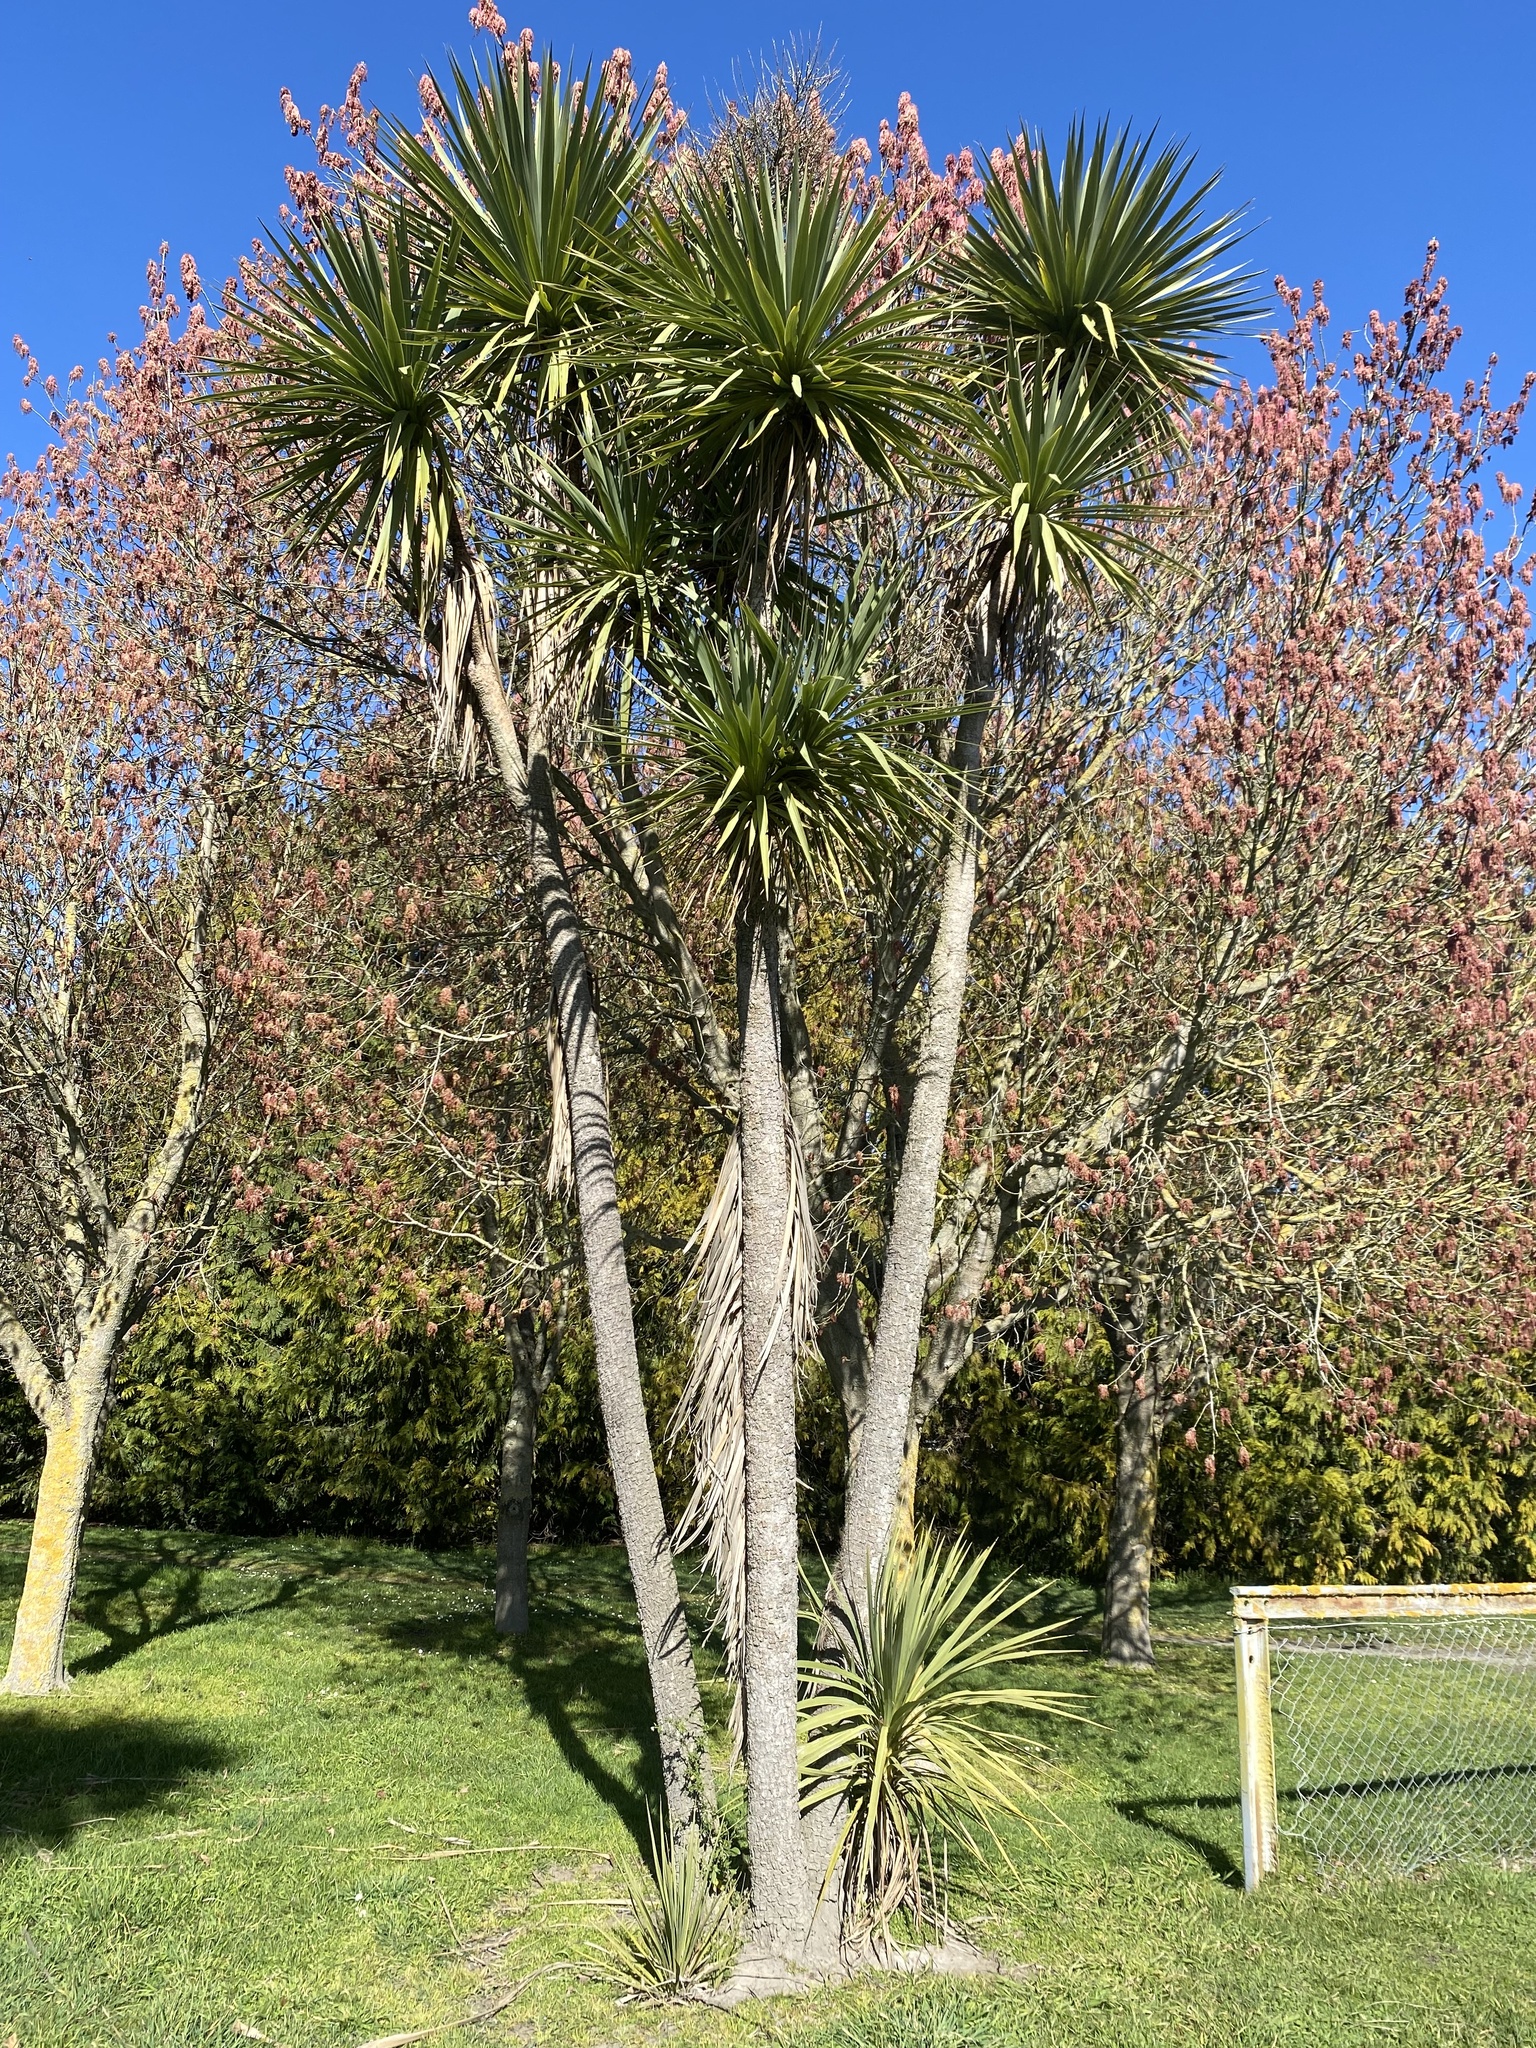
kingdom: Plantae
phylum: Tracheophyta
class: Liliopsida
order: Asparagales
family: Asparagaceae
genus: Cordyline
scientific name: Cordyline australis
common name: Cabbage-palm
